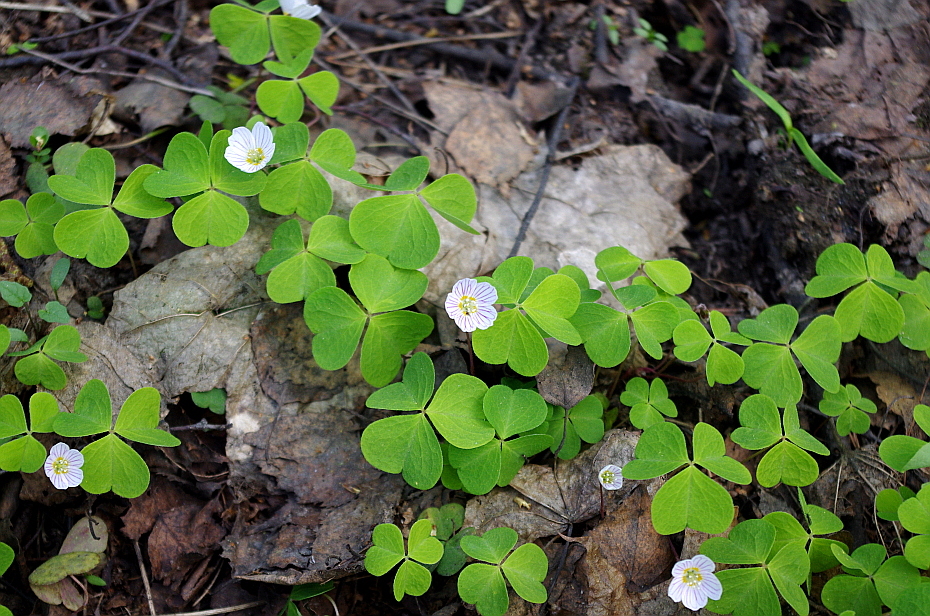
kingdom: Plantae
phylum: Tracheophyta
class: Magnoliopsida
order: Oxalidales
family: Oxalidaceae
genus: Oxalis
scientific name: Oxalis acetosella
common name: Wood-sorrel
